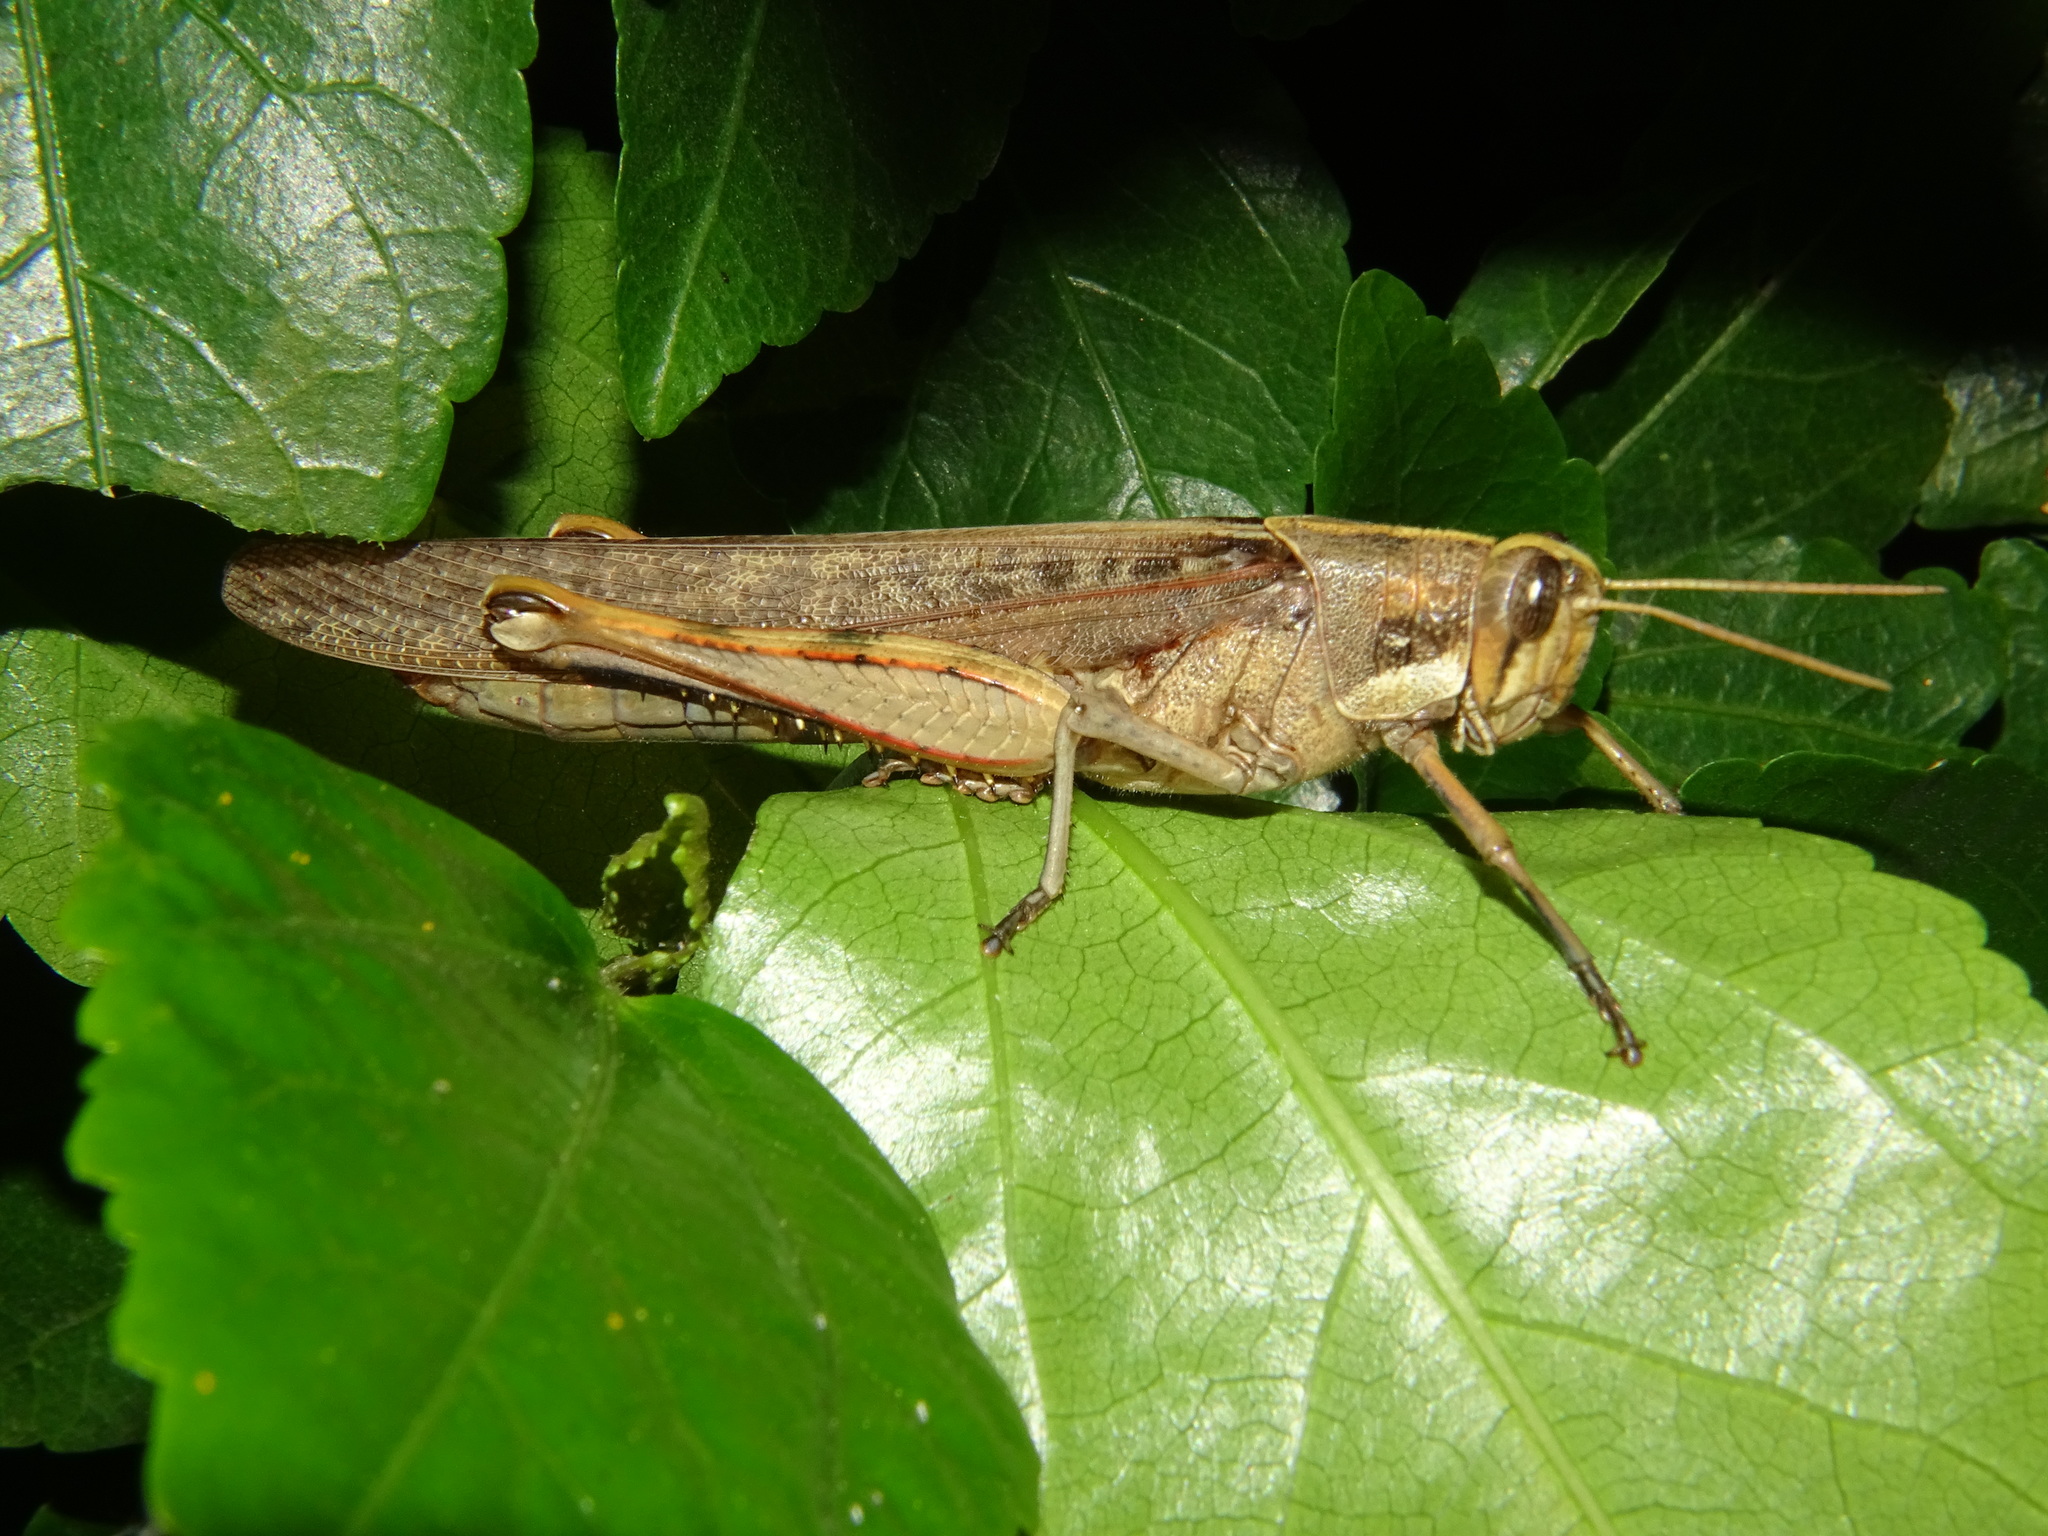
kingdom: Animalia
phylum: Arthropoda
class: Insecta
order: Orthoptera
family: Acrididae
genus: Schistocerca
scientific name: Schistocerca nitens
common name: Vagrant grasshopper
